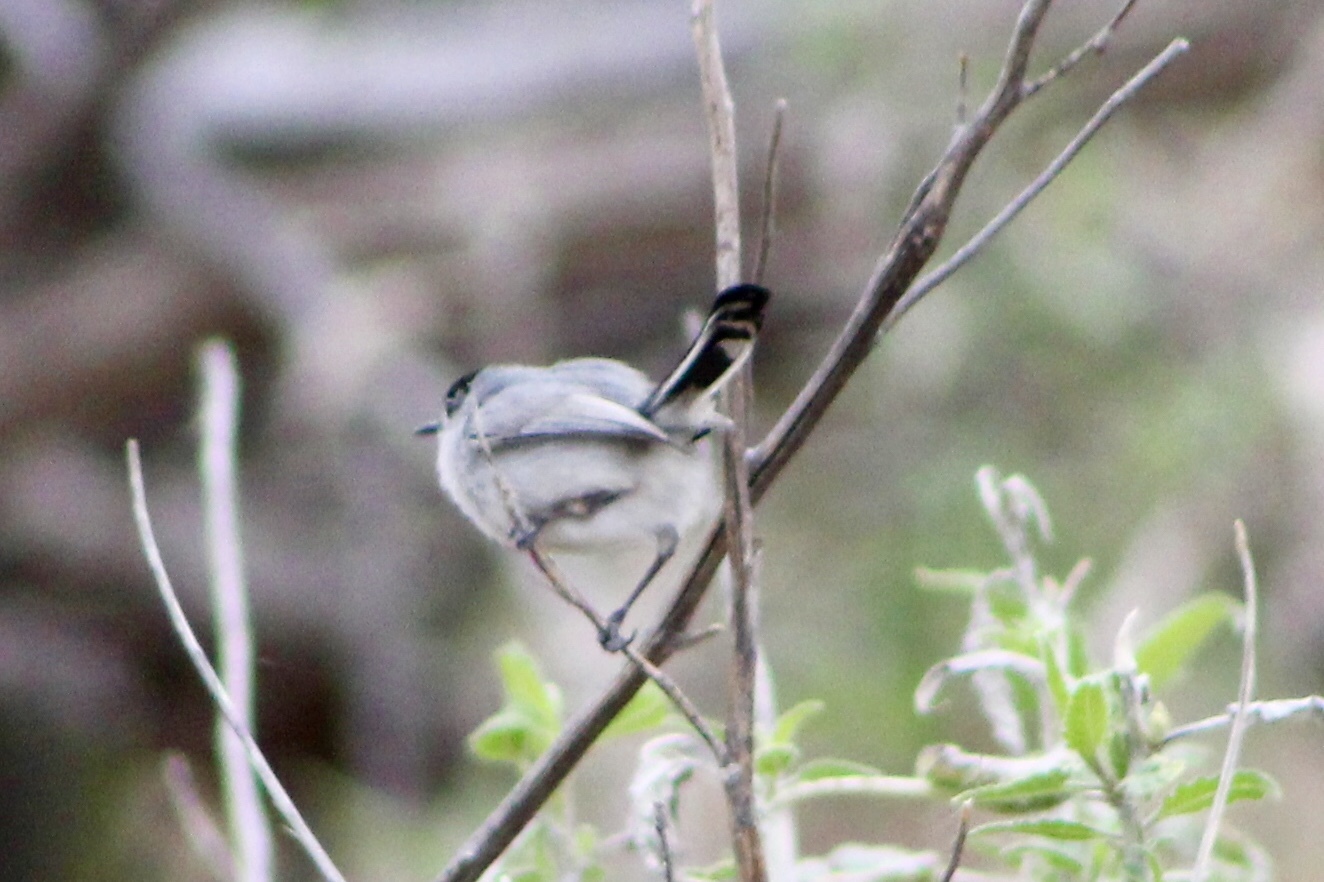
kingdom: Animalia
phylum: Chordata
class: Aves
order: Passeriformes
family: Polioptilidae
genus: Polioptila
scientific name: Polioptila melanura
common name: Black-tailed gnatcatcher
